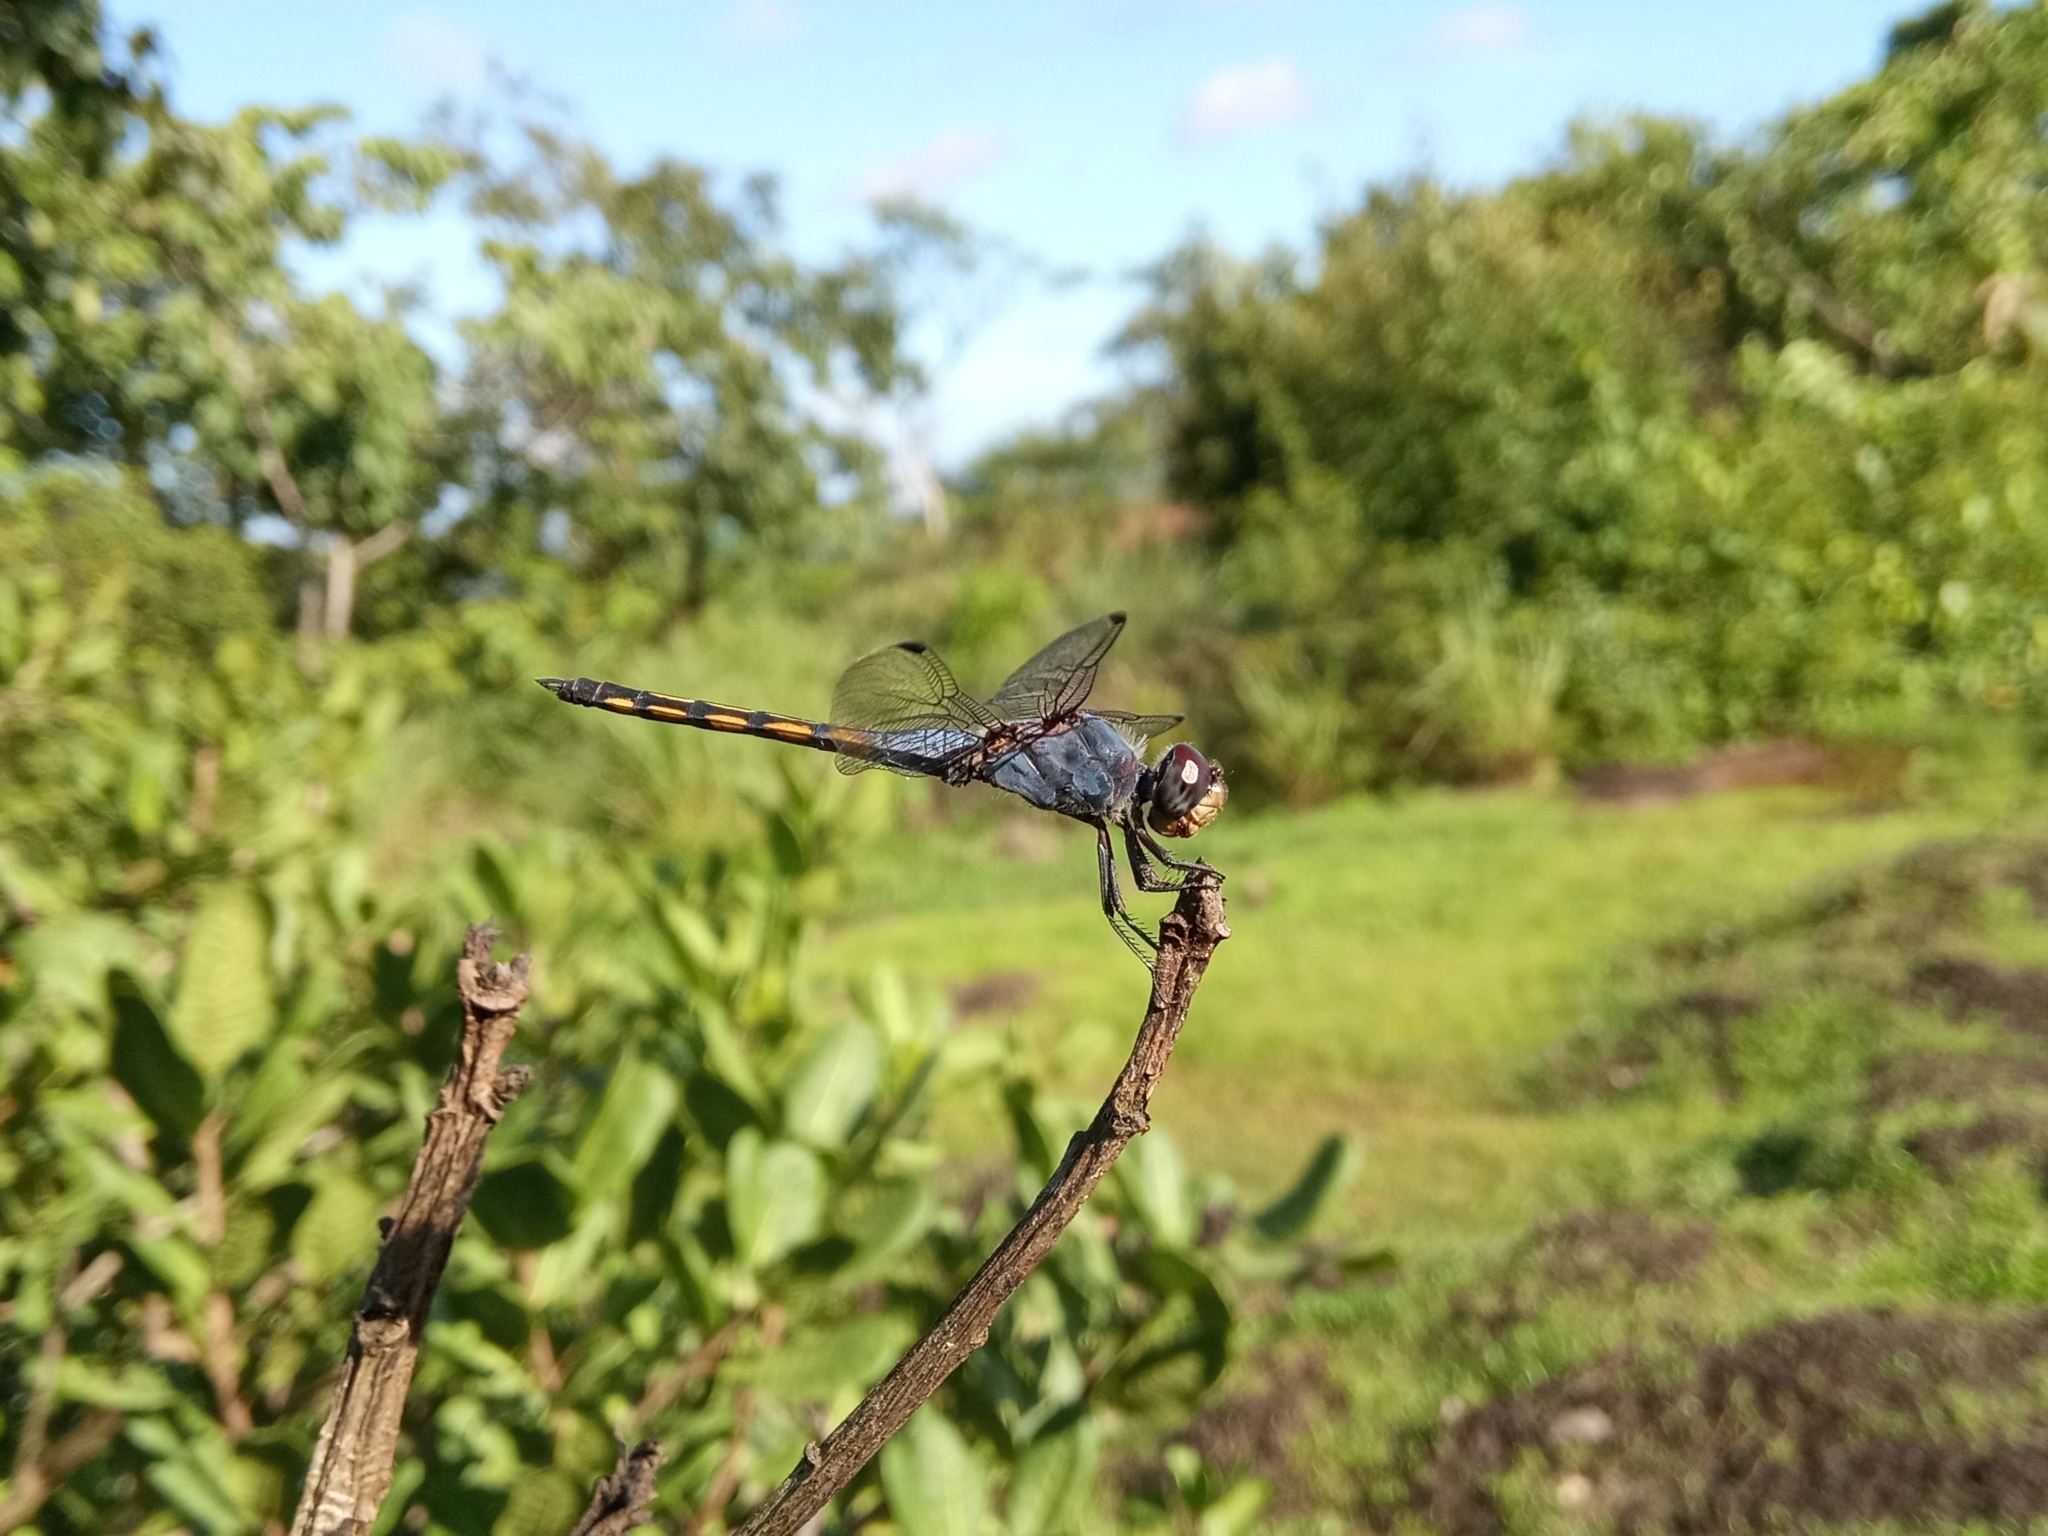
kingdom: Animalia
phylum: Arthropoda
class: Insecta
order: Odonata
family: Libellulidae
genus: Potamarcha
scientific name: Potamarcha congener
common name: Blue chaser
